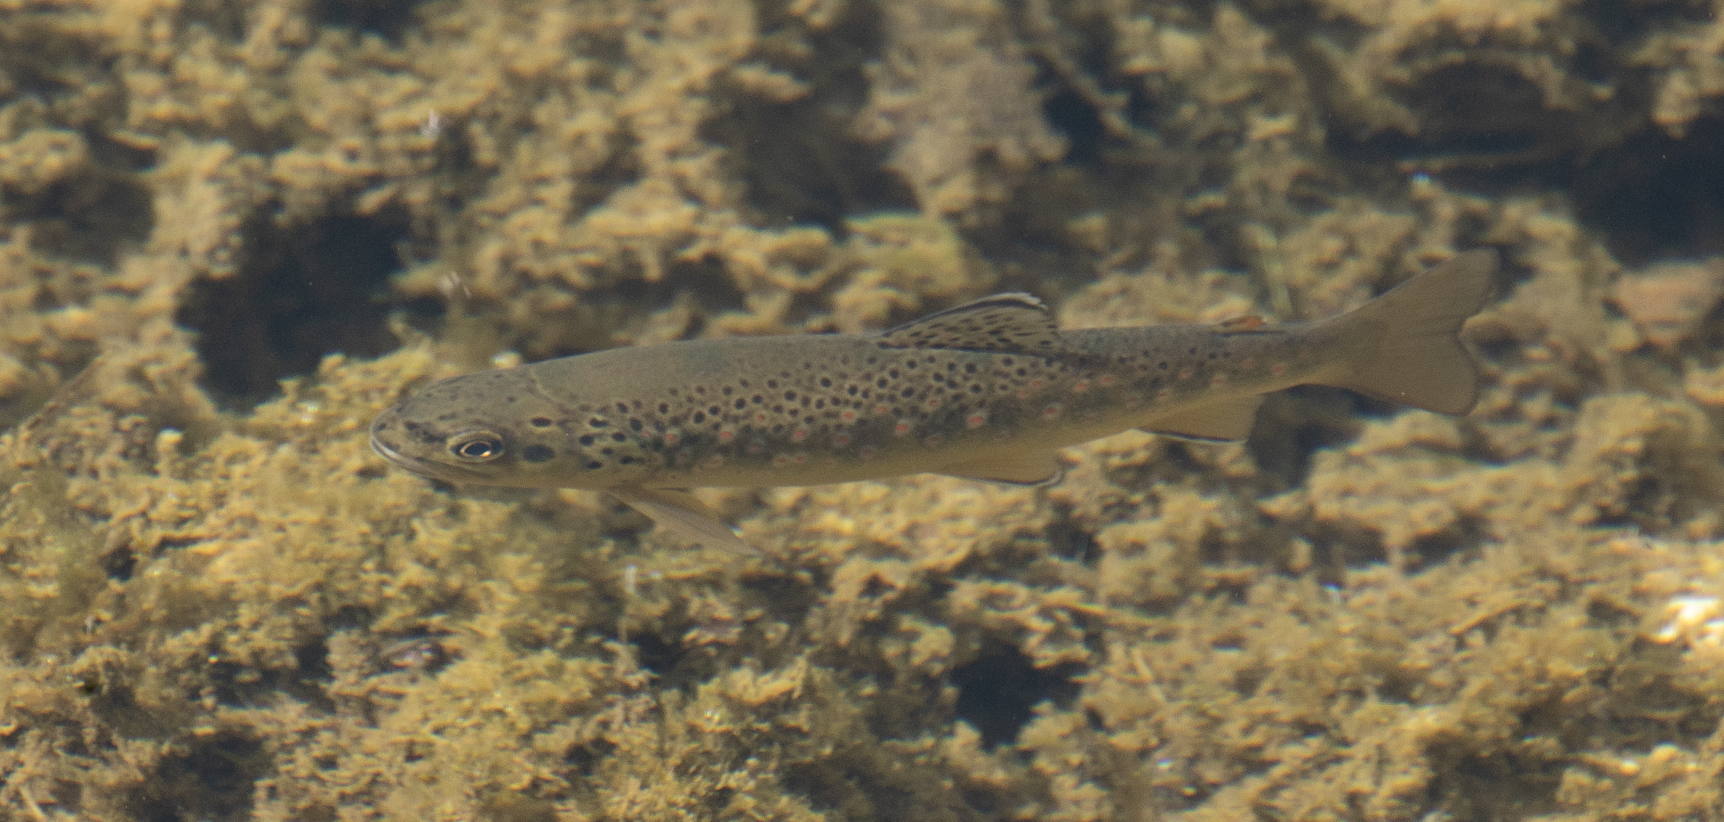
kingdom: Animalia
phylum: Chordata
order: Salmoniformes
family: Salmonidae
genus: Salmo
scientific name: Salmo trutta
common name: Brown trout
